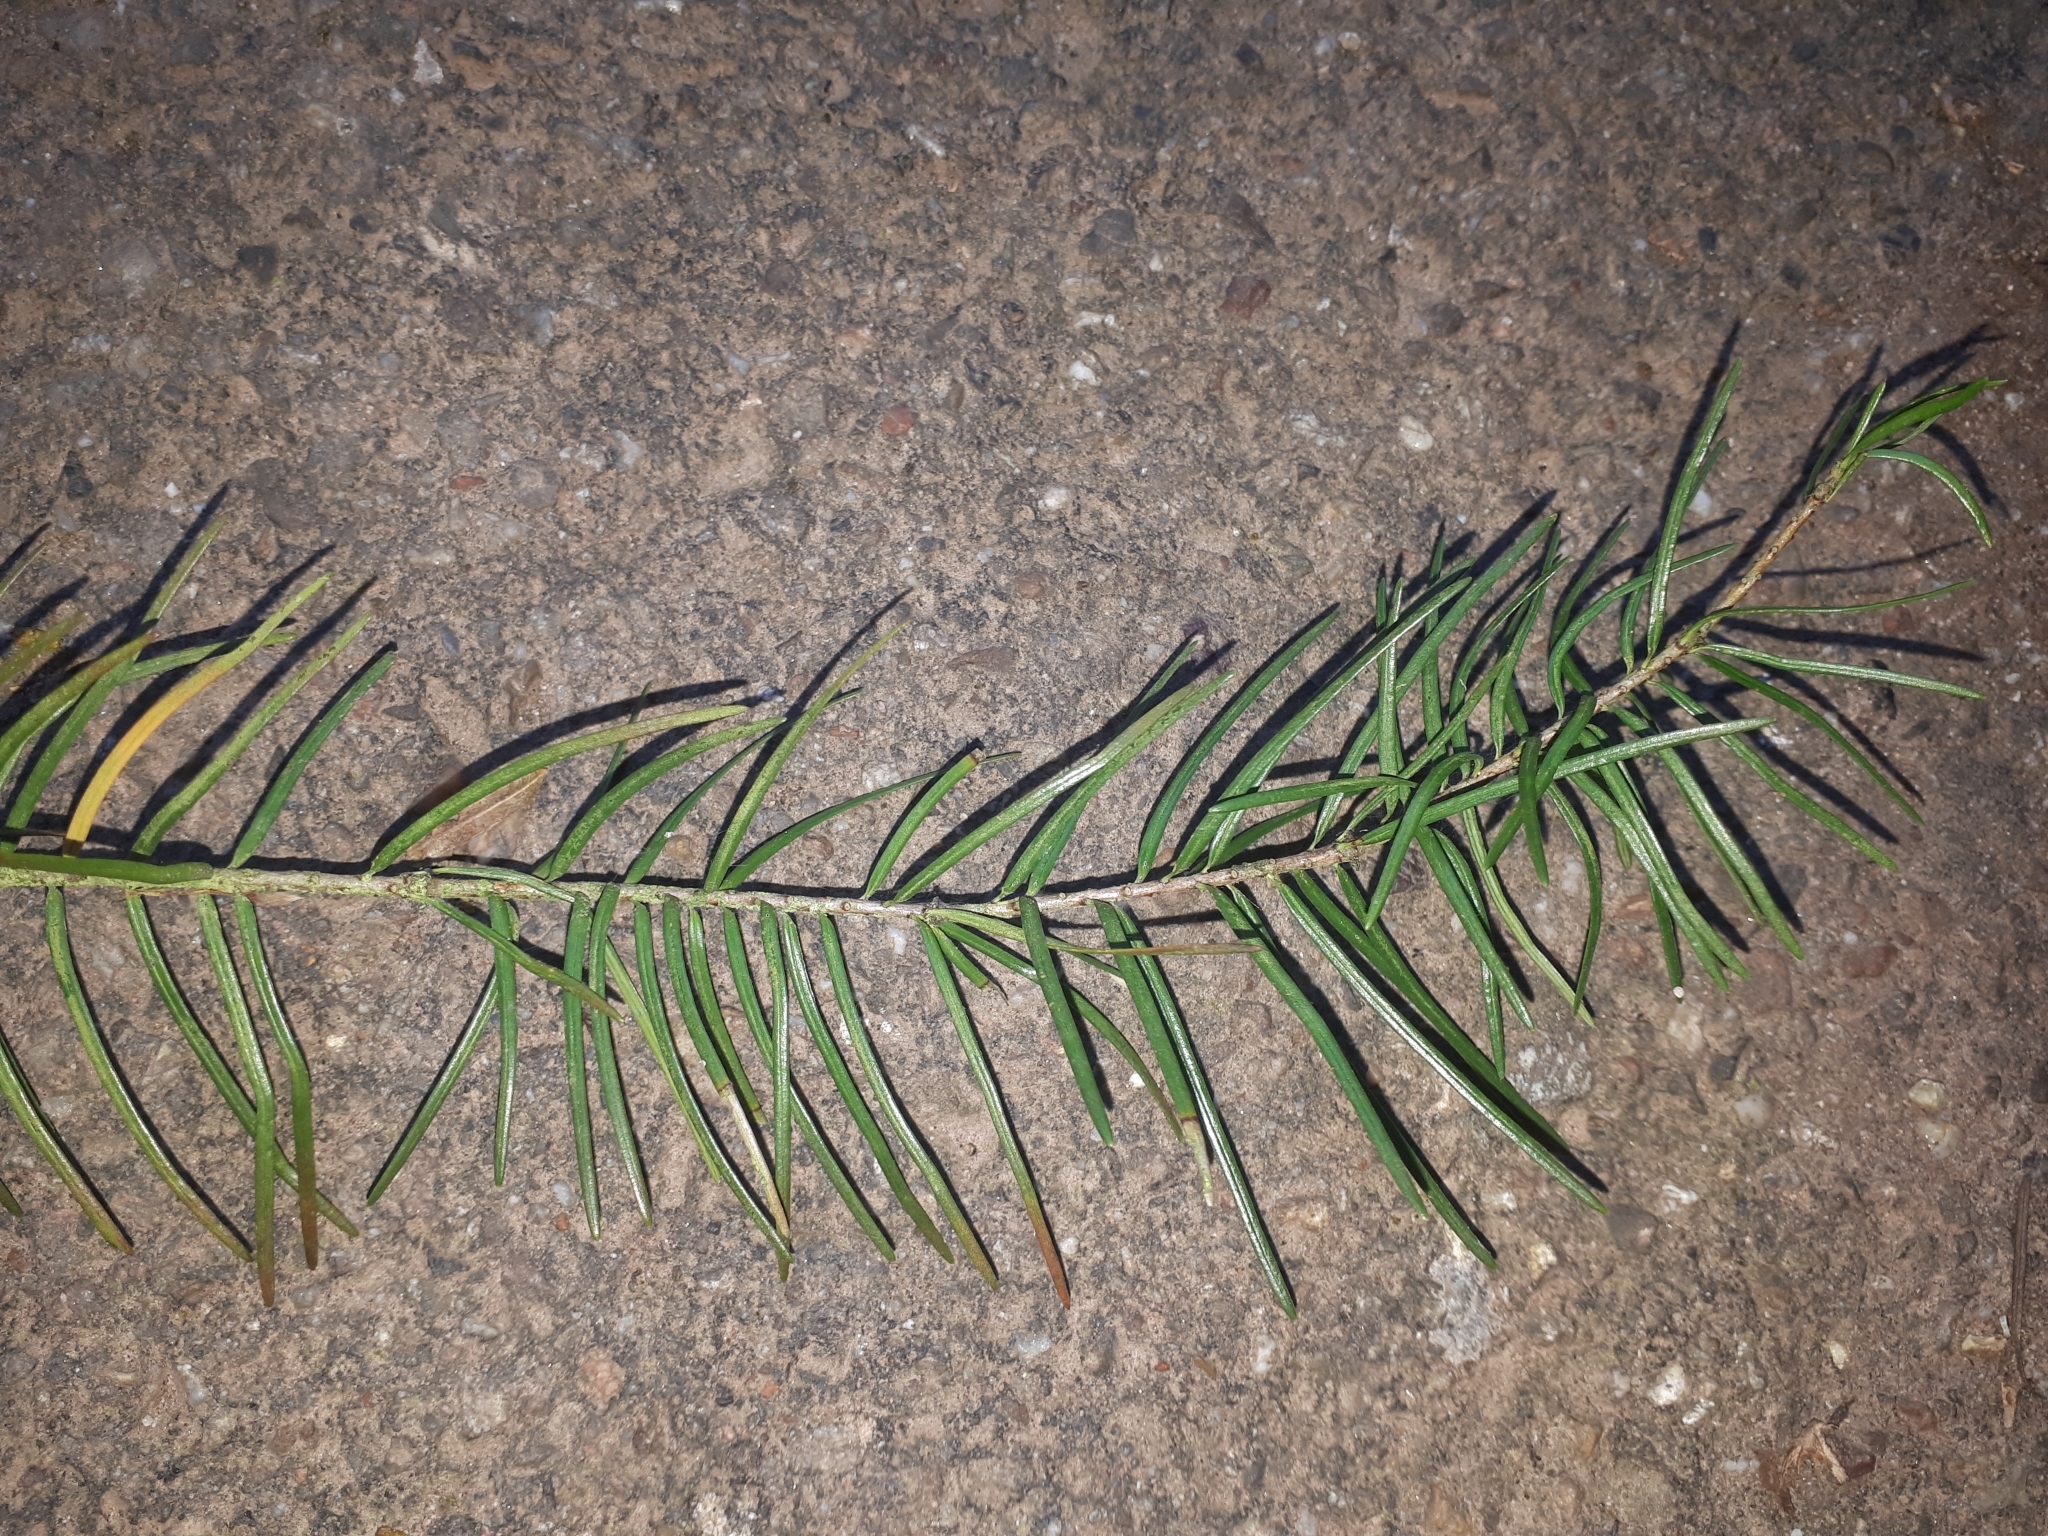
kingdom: Plantae
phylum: Tracheophyta
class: Pinopsida
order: Pinales
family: Pinaceae
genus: Pseudotsuga
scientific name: Pseudotsuga menziesii
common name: Douglas fir
